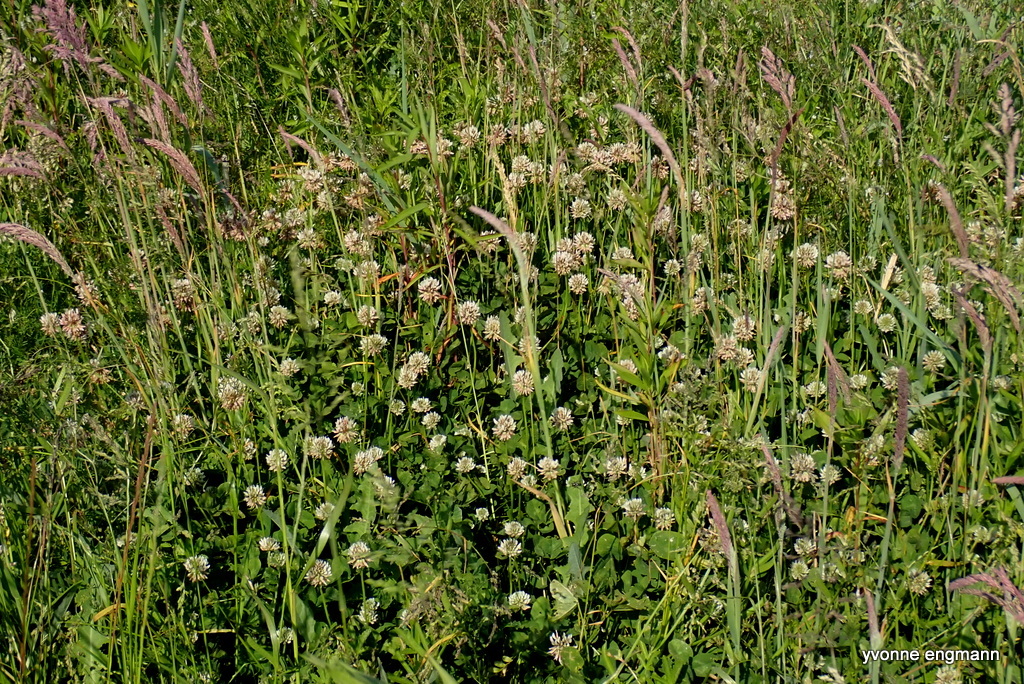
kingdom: Plantae
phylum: Tracheophyta
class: Magnoliopsida
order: Fabales
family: Fabaceae
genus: Trifolium
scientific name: Trifolium repens
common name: White clover
